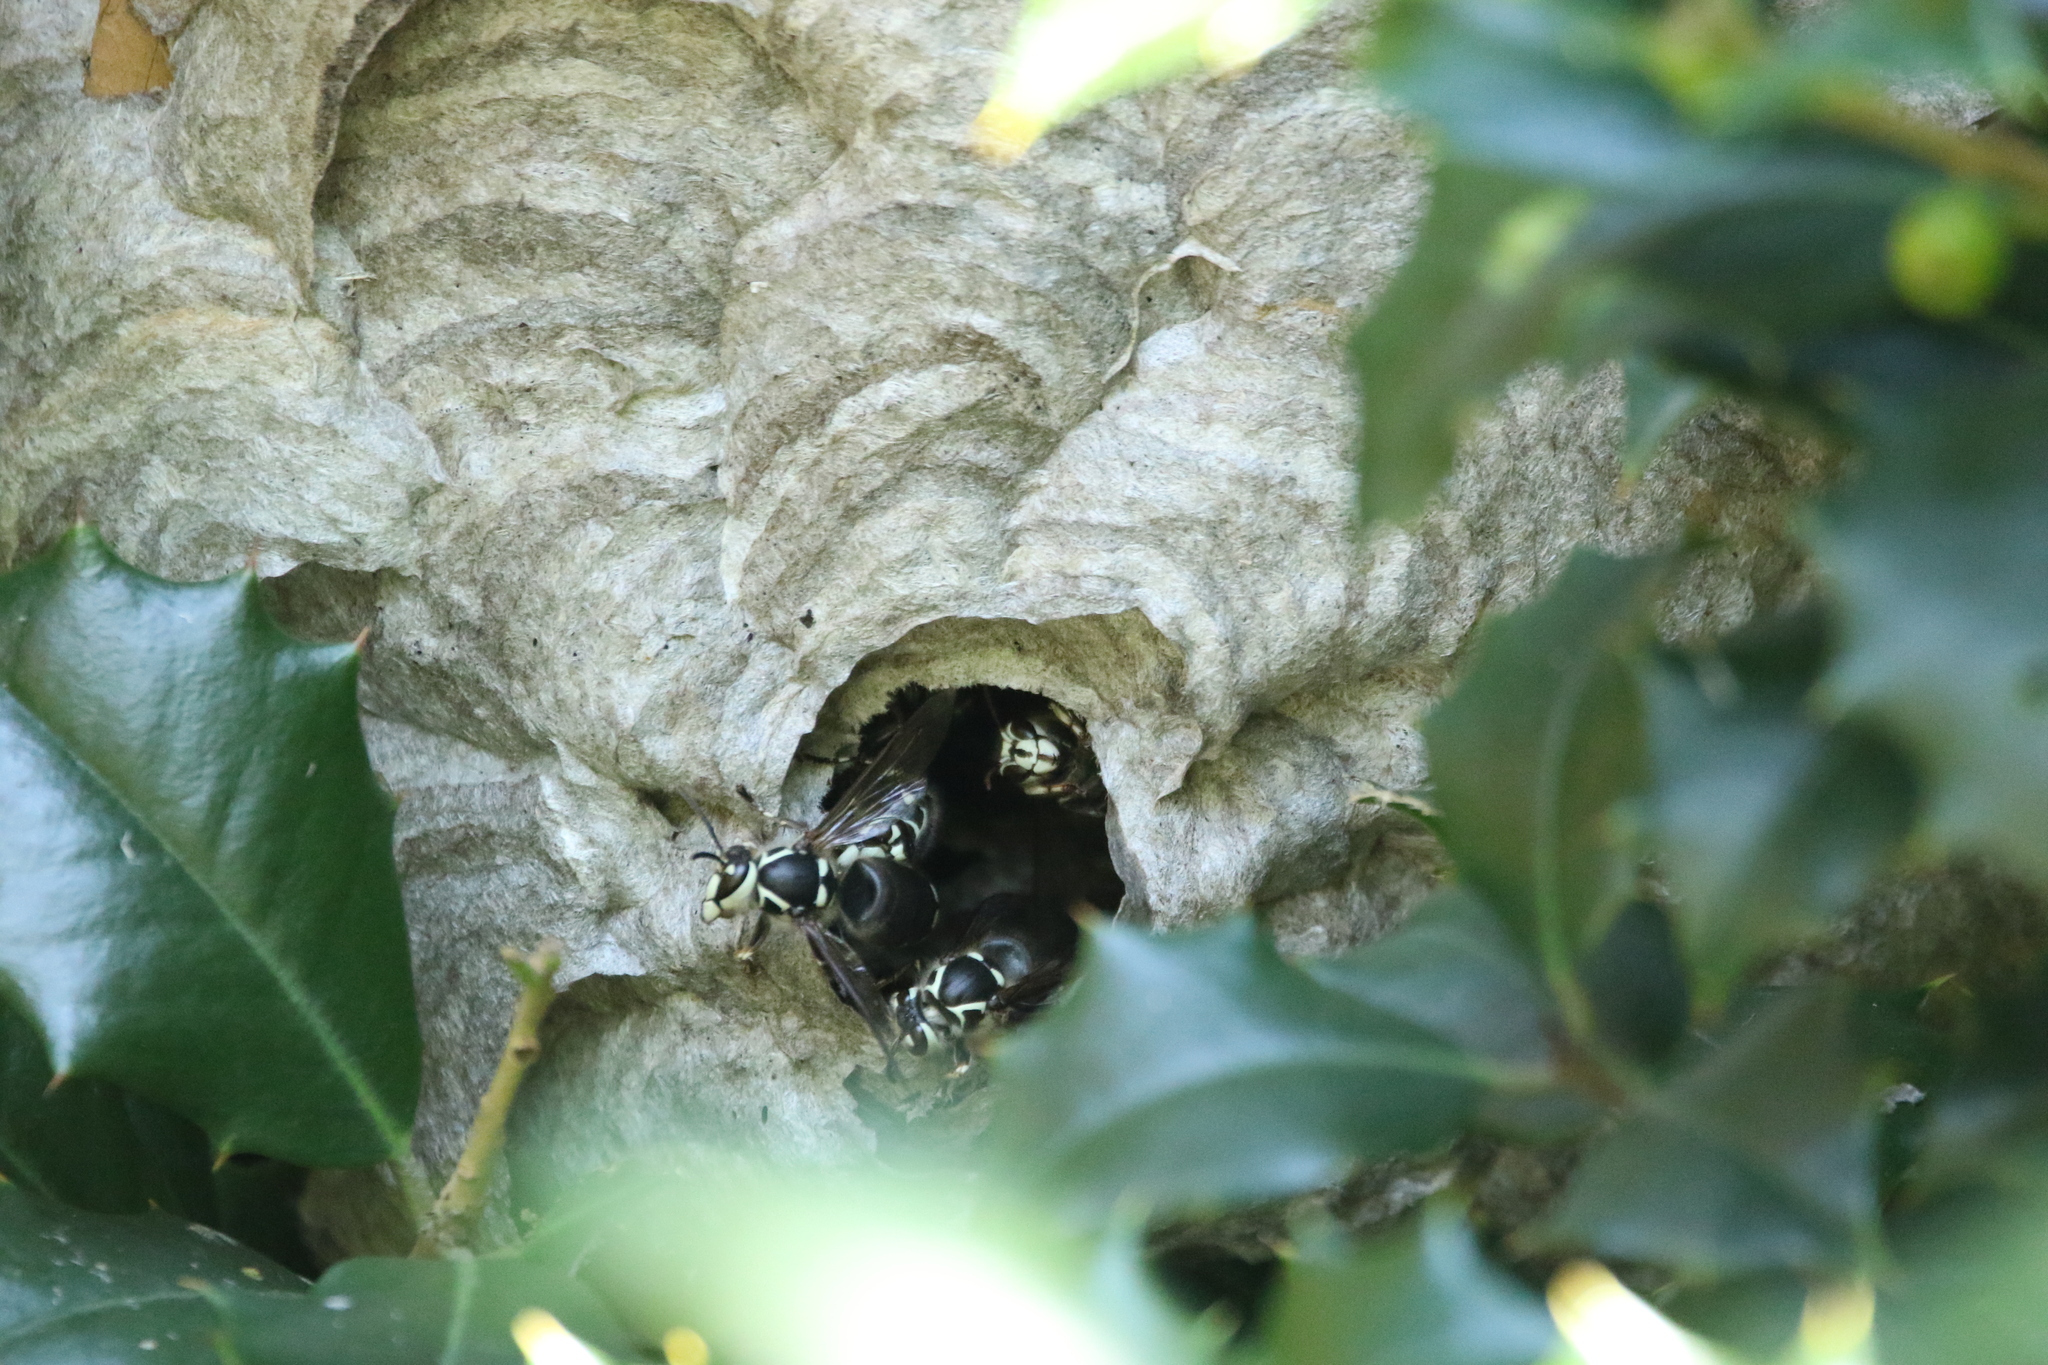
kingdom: Animalia
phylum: Arthropoda
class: Insecta
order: Hymenoptera
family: Vespidae
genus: Dolichovespula
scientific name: Dolichovespula maculata
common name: Bald-faced hornet
